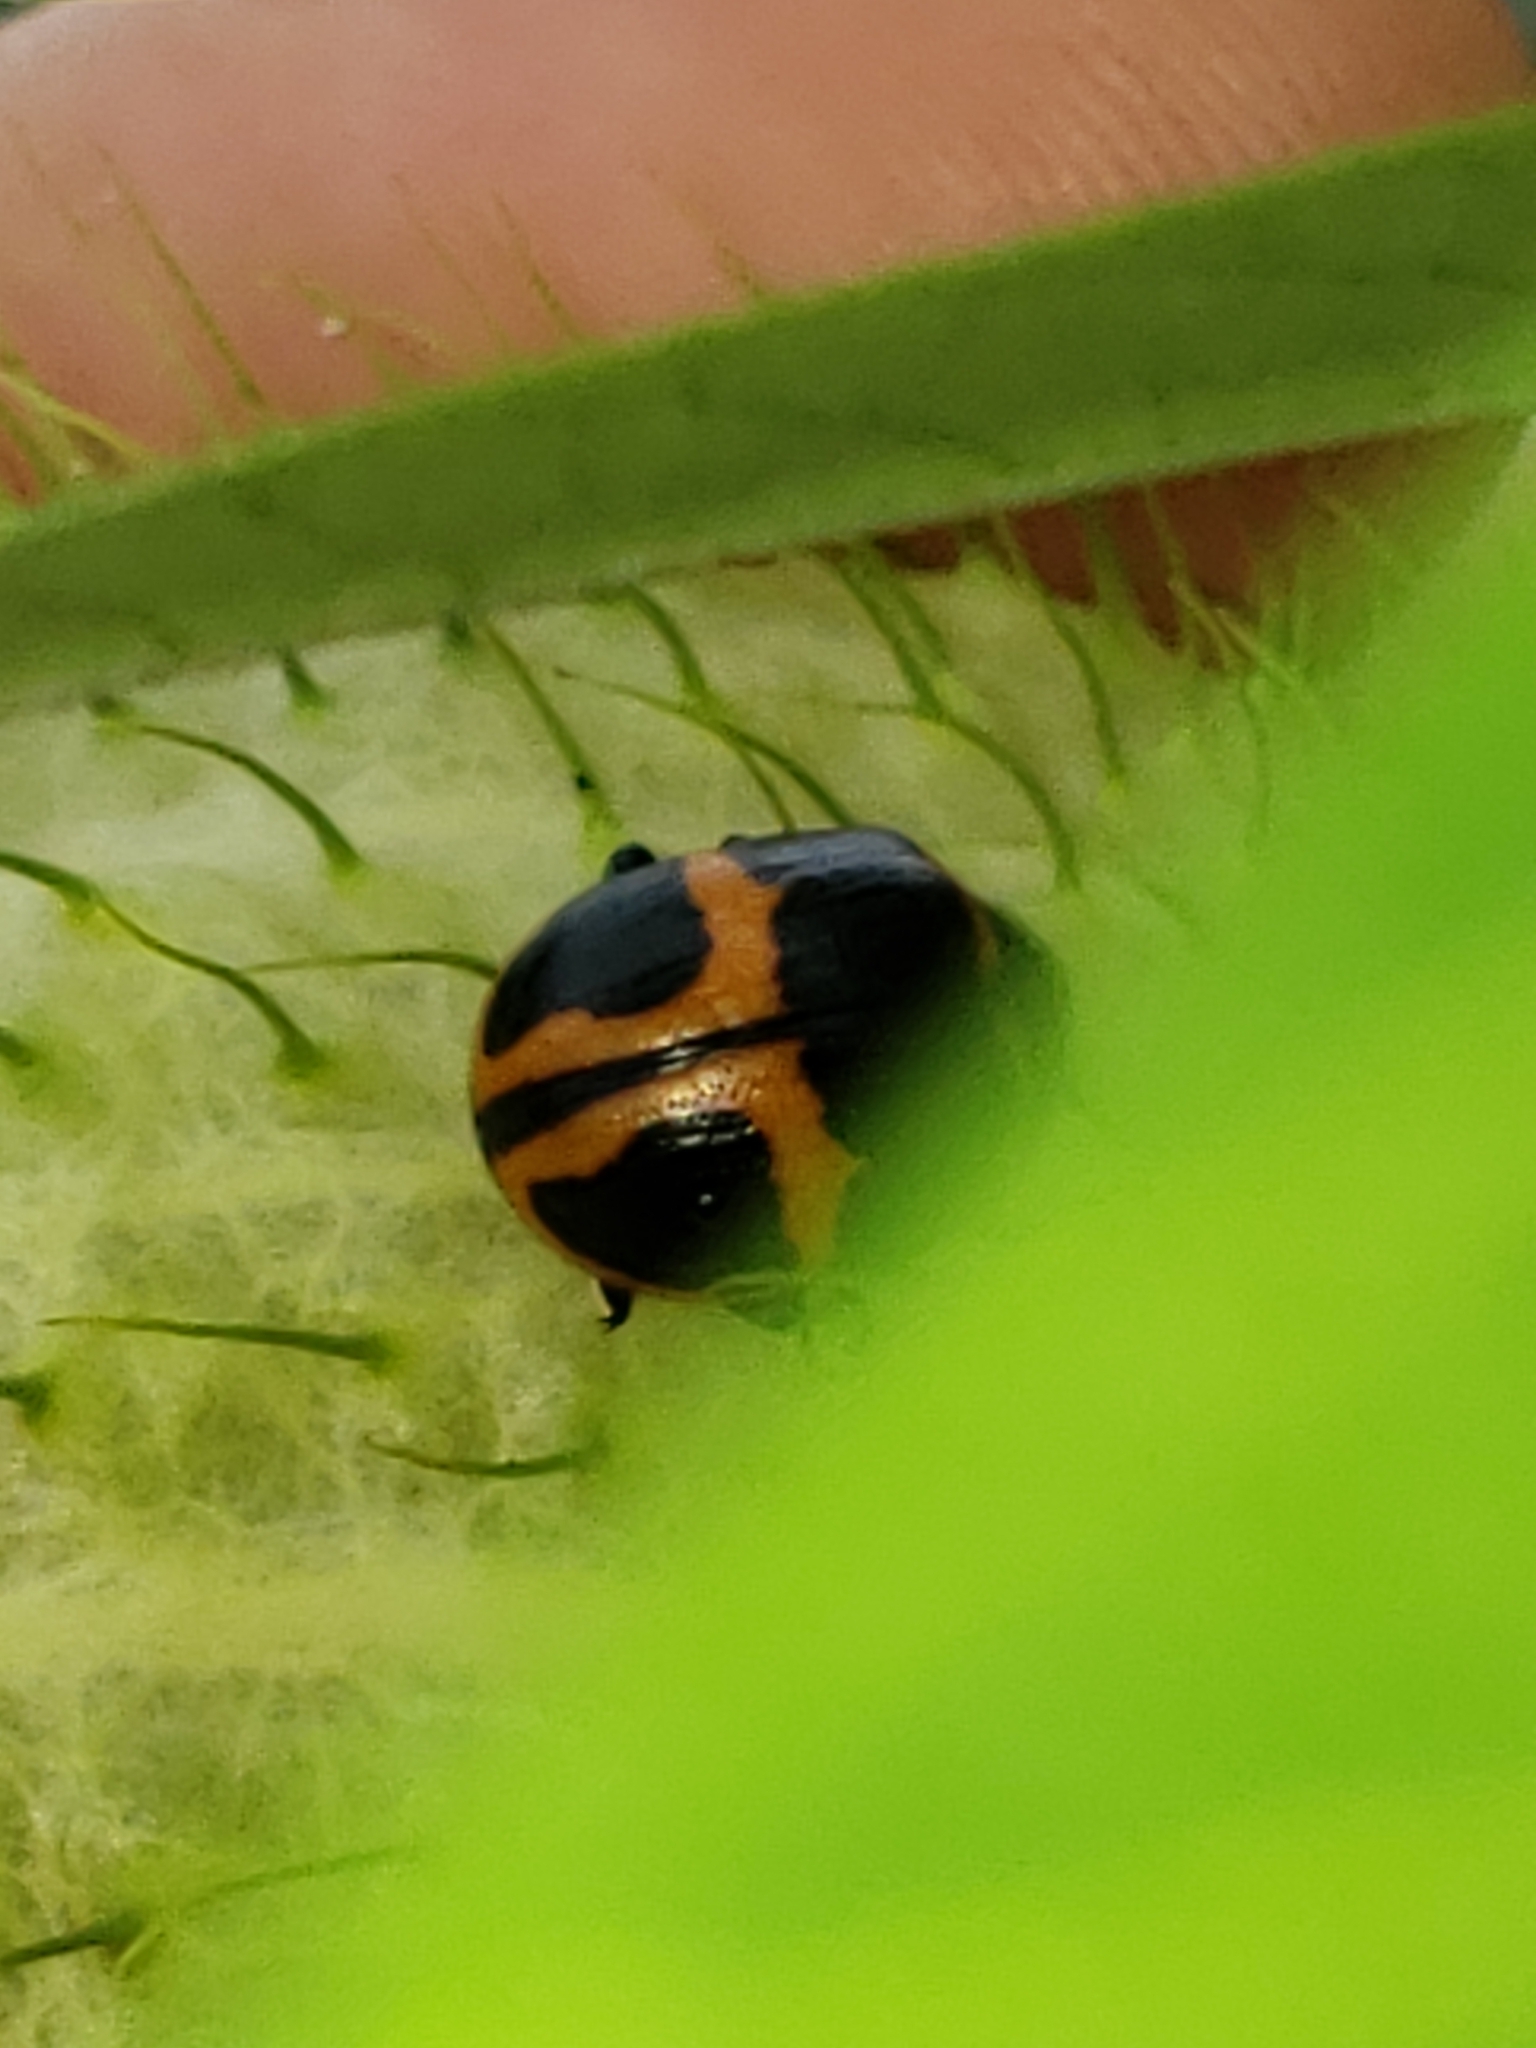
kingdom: Animalia
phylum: Arthropoda
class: Insecta
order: Coleoptera
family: Chrysomelidae
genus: Labidomera
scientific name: Labidomera clivicollis
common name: Swamp milkweed leaf beetle
